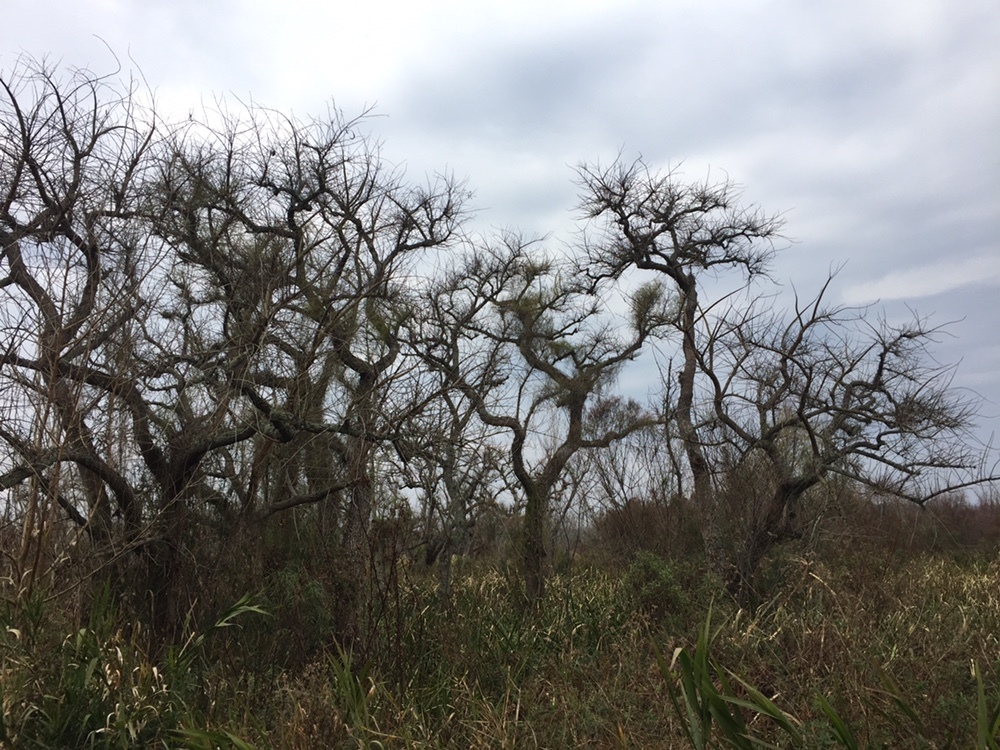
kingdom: Plantae
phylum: Tracheophyta
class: Magnoliopsida
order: Fabales
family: Fabaceae
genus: Erythrina
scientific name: Erythrina crista-galli
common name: Cockspur coral tree
